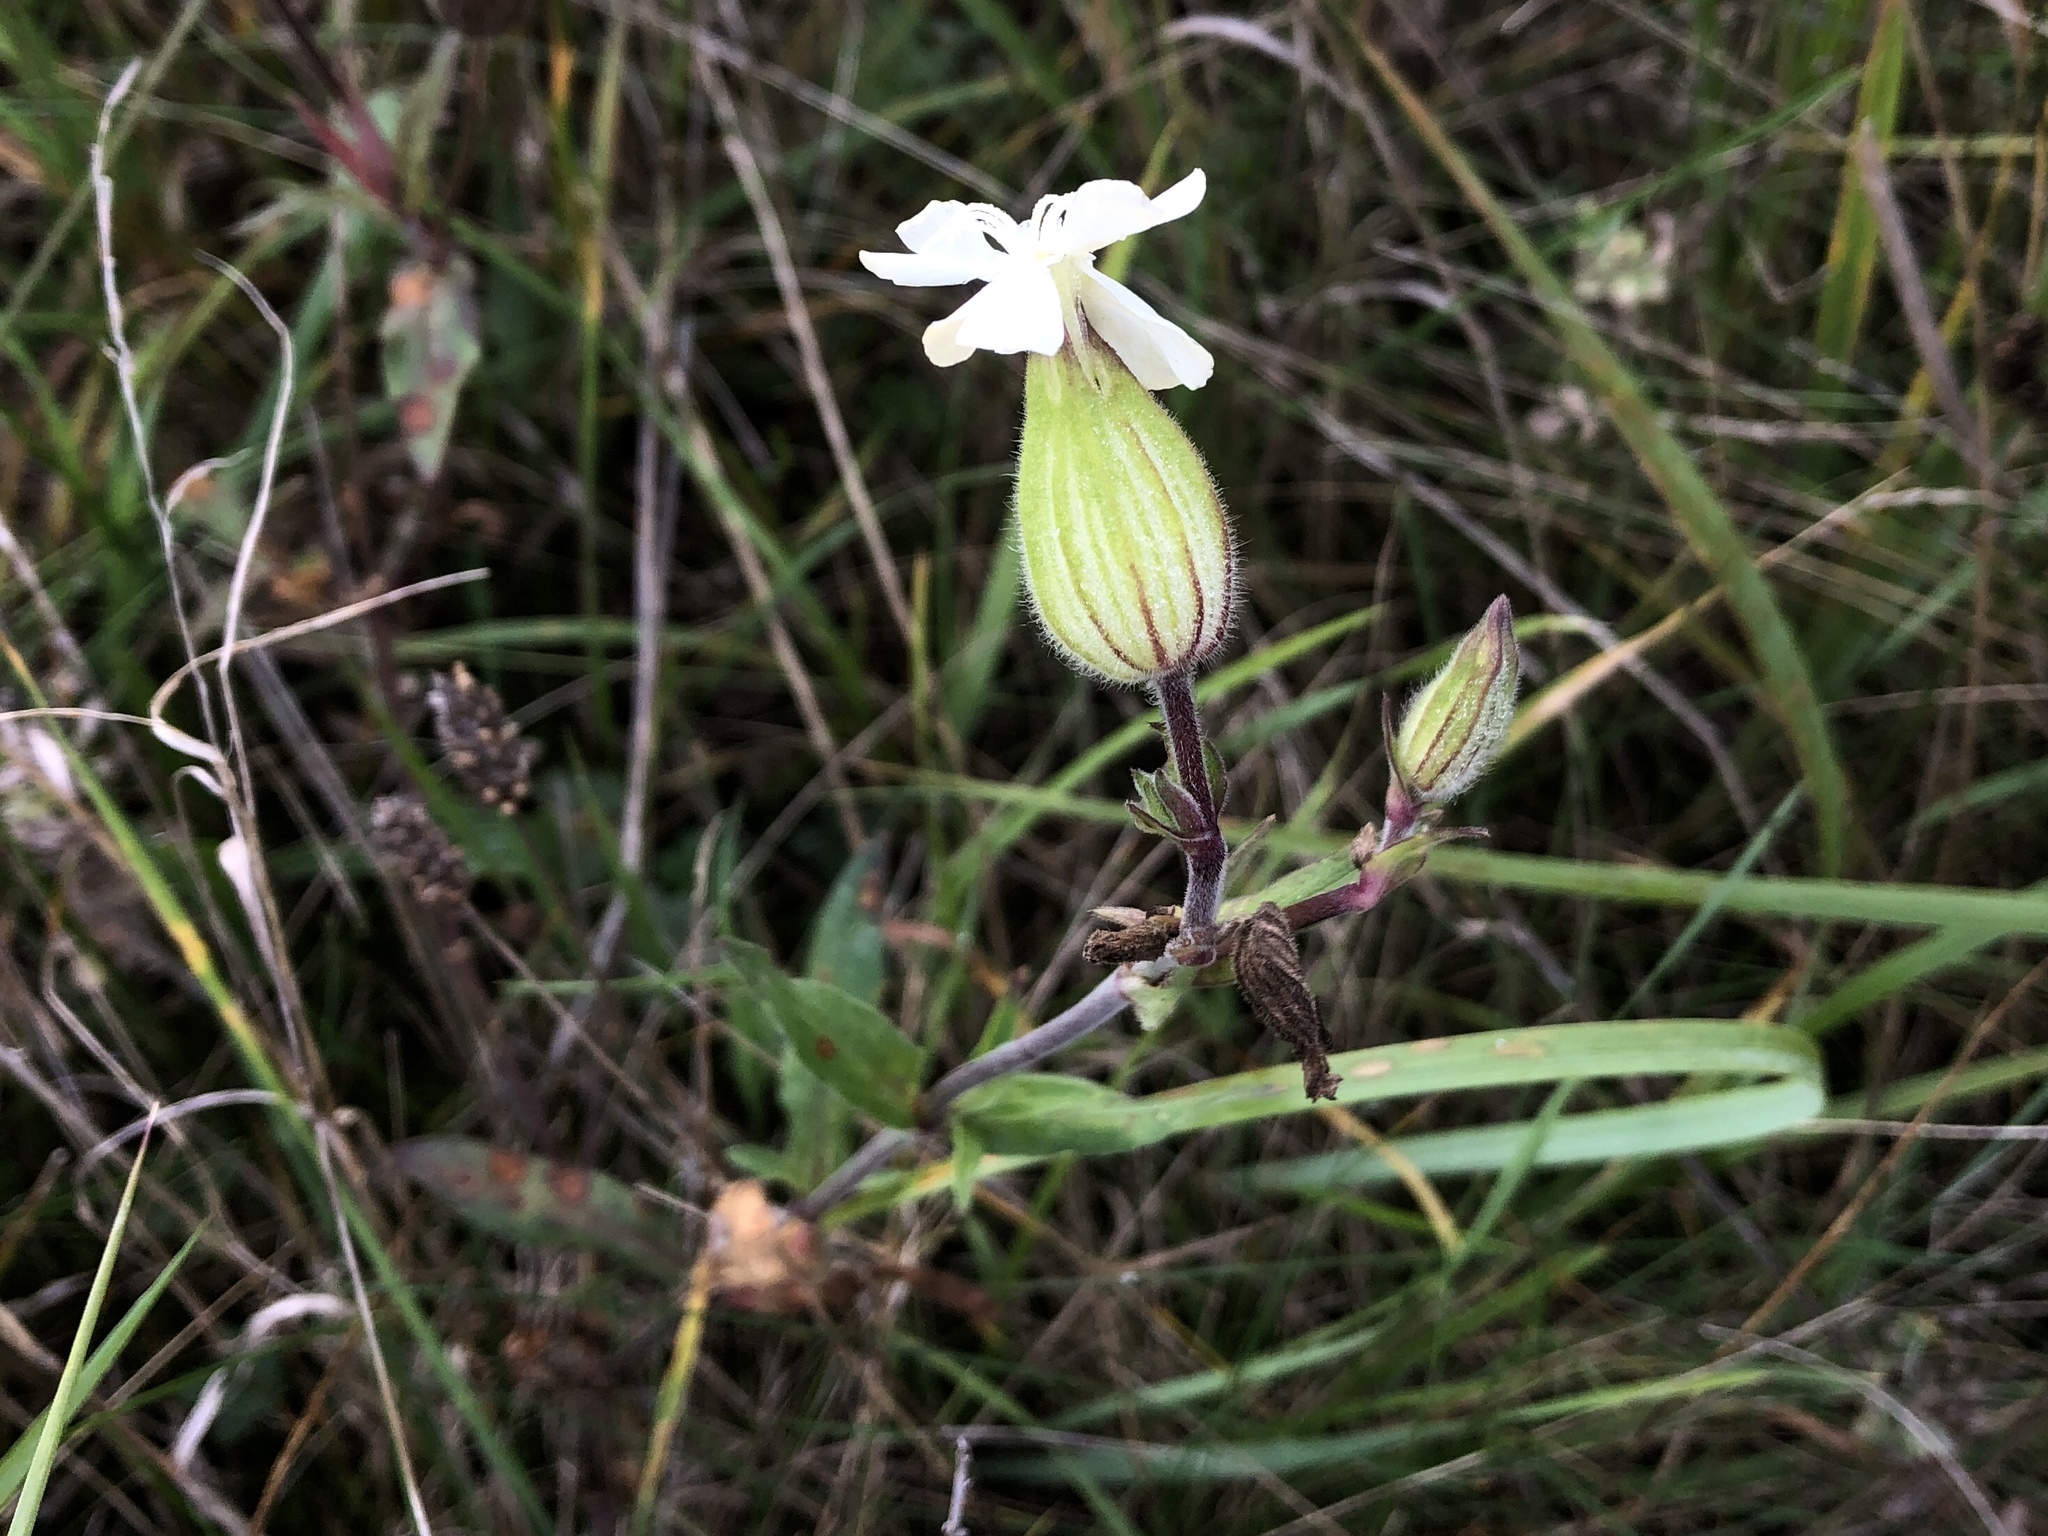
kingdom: Plantae
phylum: Tracheophyta
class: Magnoliopsida
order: Caryophyllales
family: Caryophyllaceae
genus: Silene
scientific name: Silene latifolia
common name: White campion
